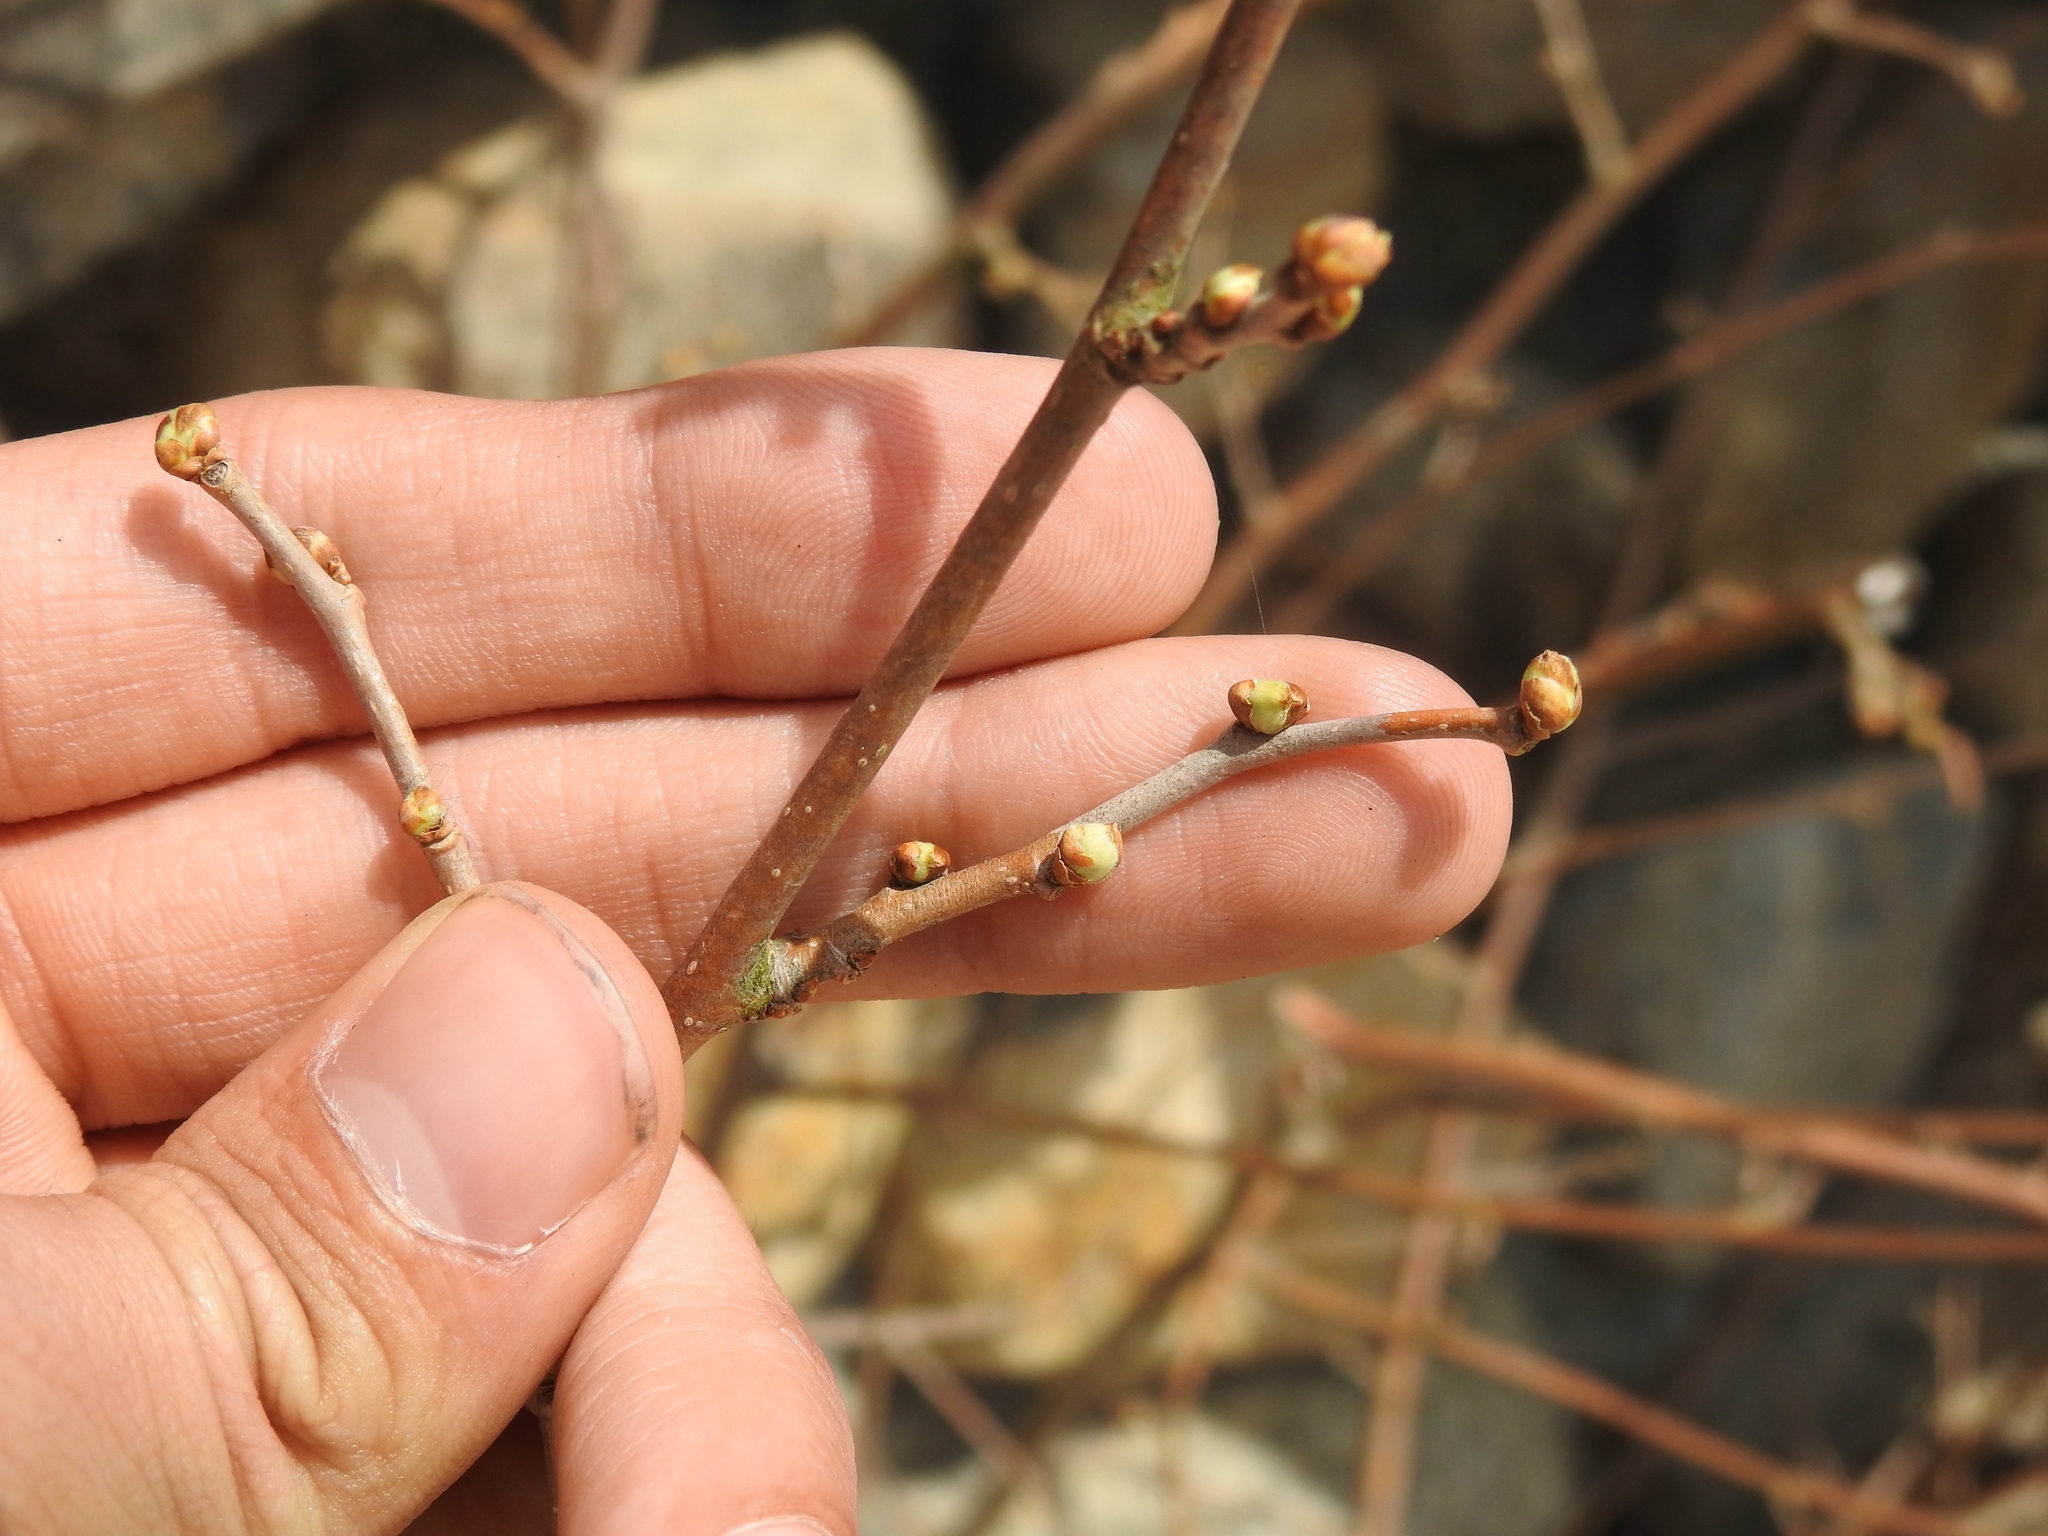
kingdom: Plantae
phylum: Tracheophyta
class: Magnoliopsida
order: Laurales
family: Lauraceae
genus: Lindera
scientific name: Lindera benzoin
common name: Spicebush
